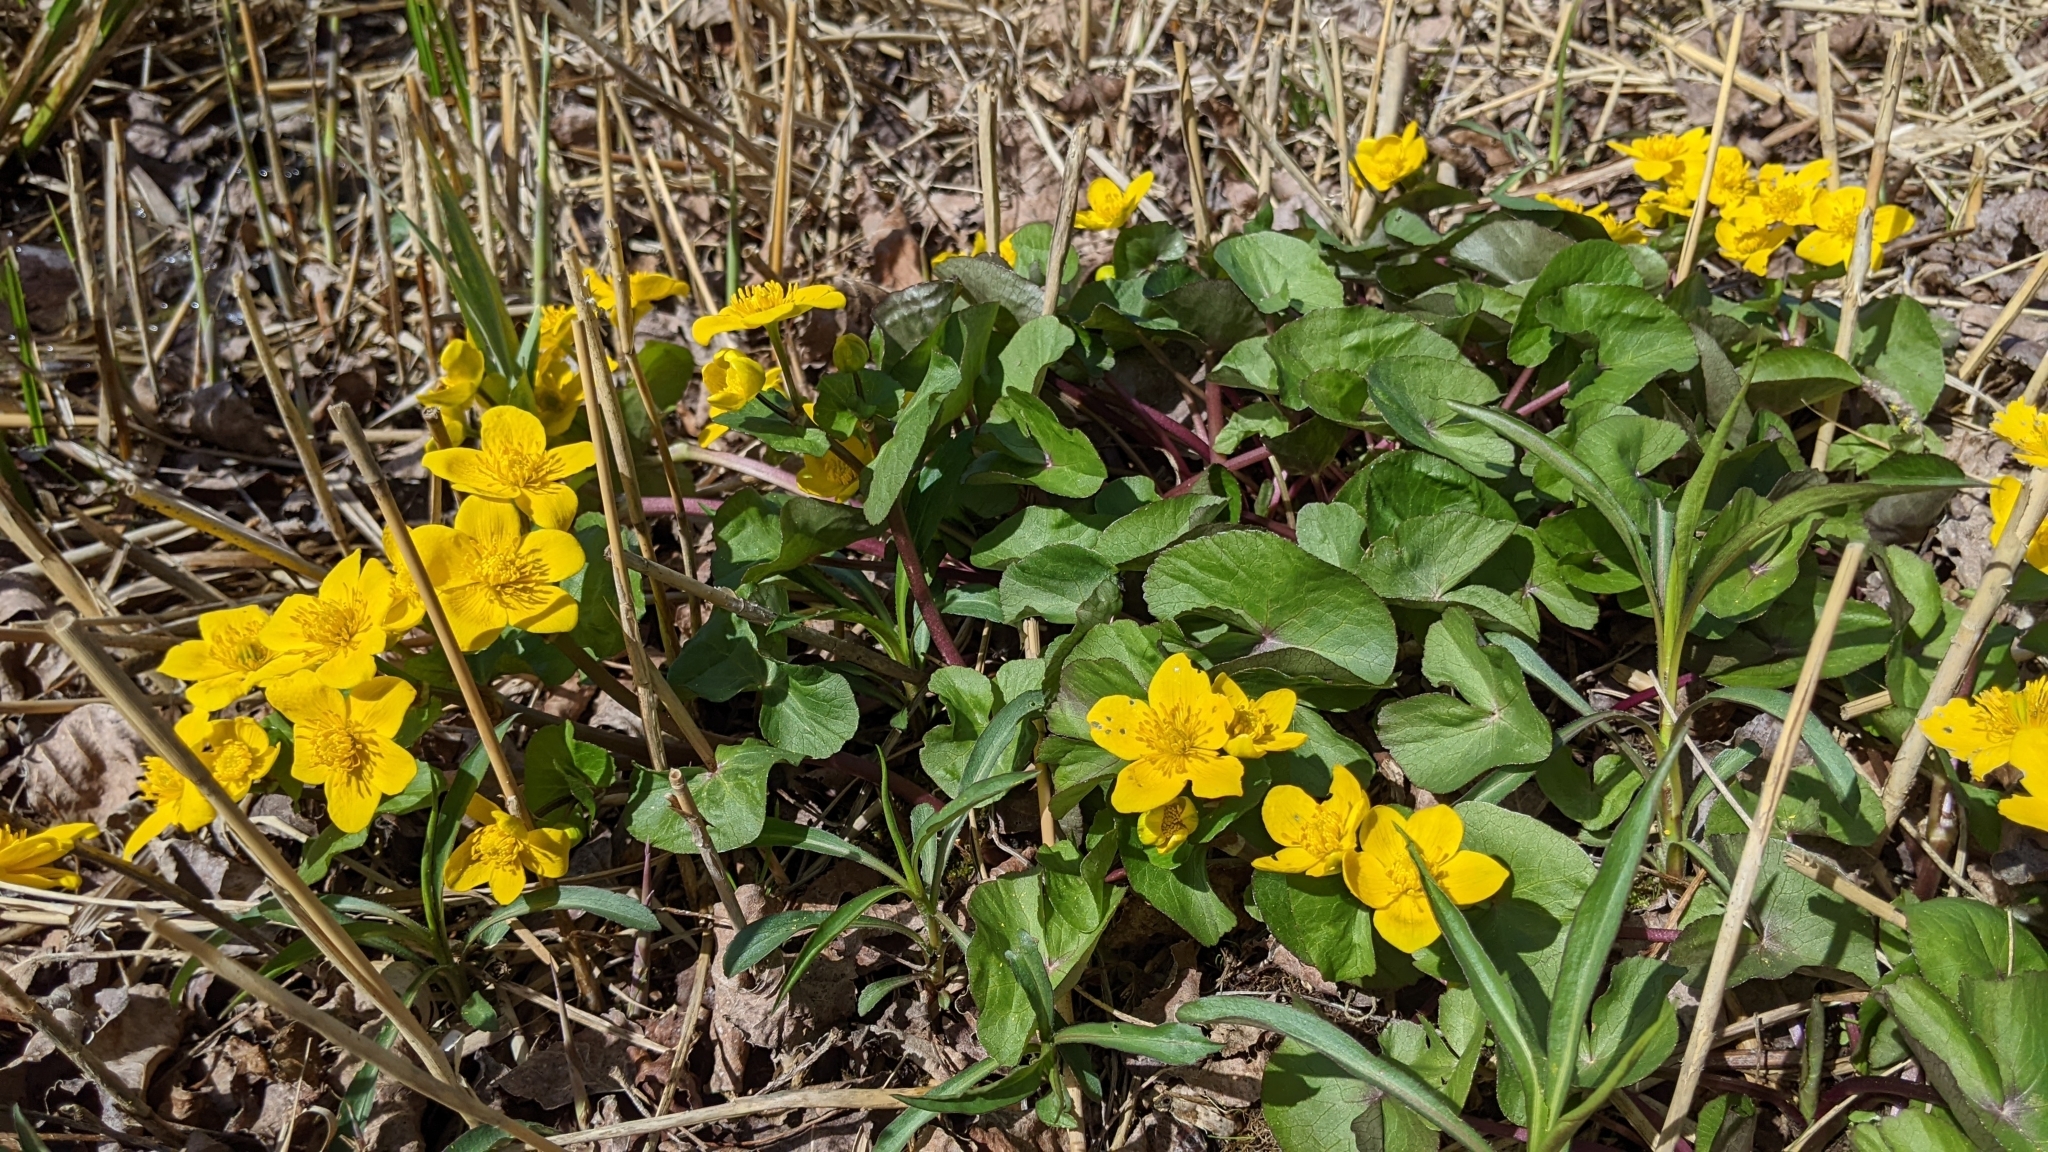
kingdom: Plantae
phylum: Tracheophyta
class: Magnoliopsida
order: Ranunculales
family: Ranunculaceae
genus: Caltha
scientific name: Caltha palustris
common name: Marsh marigold
